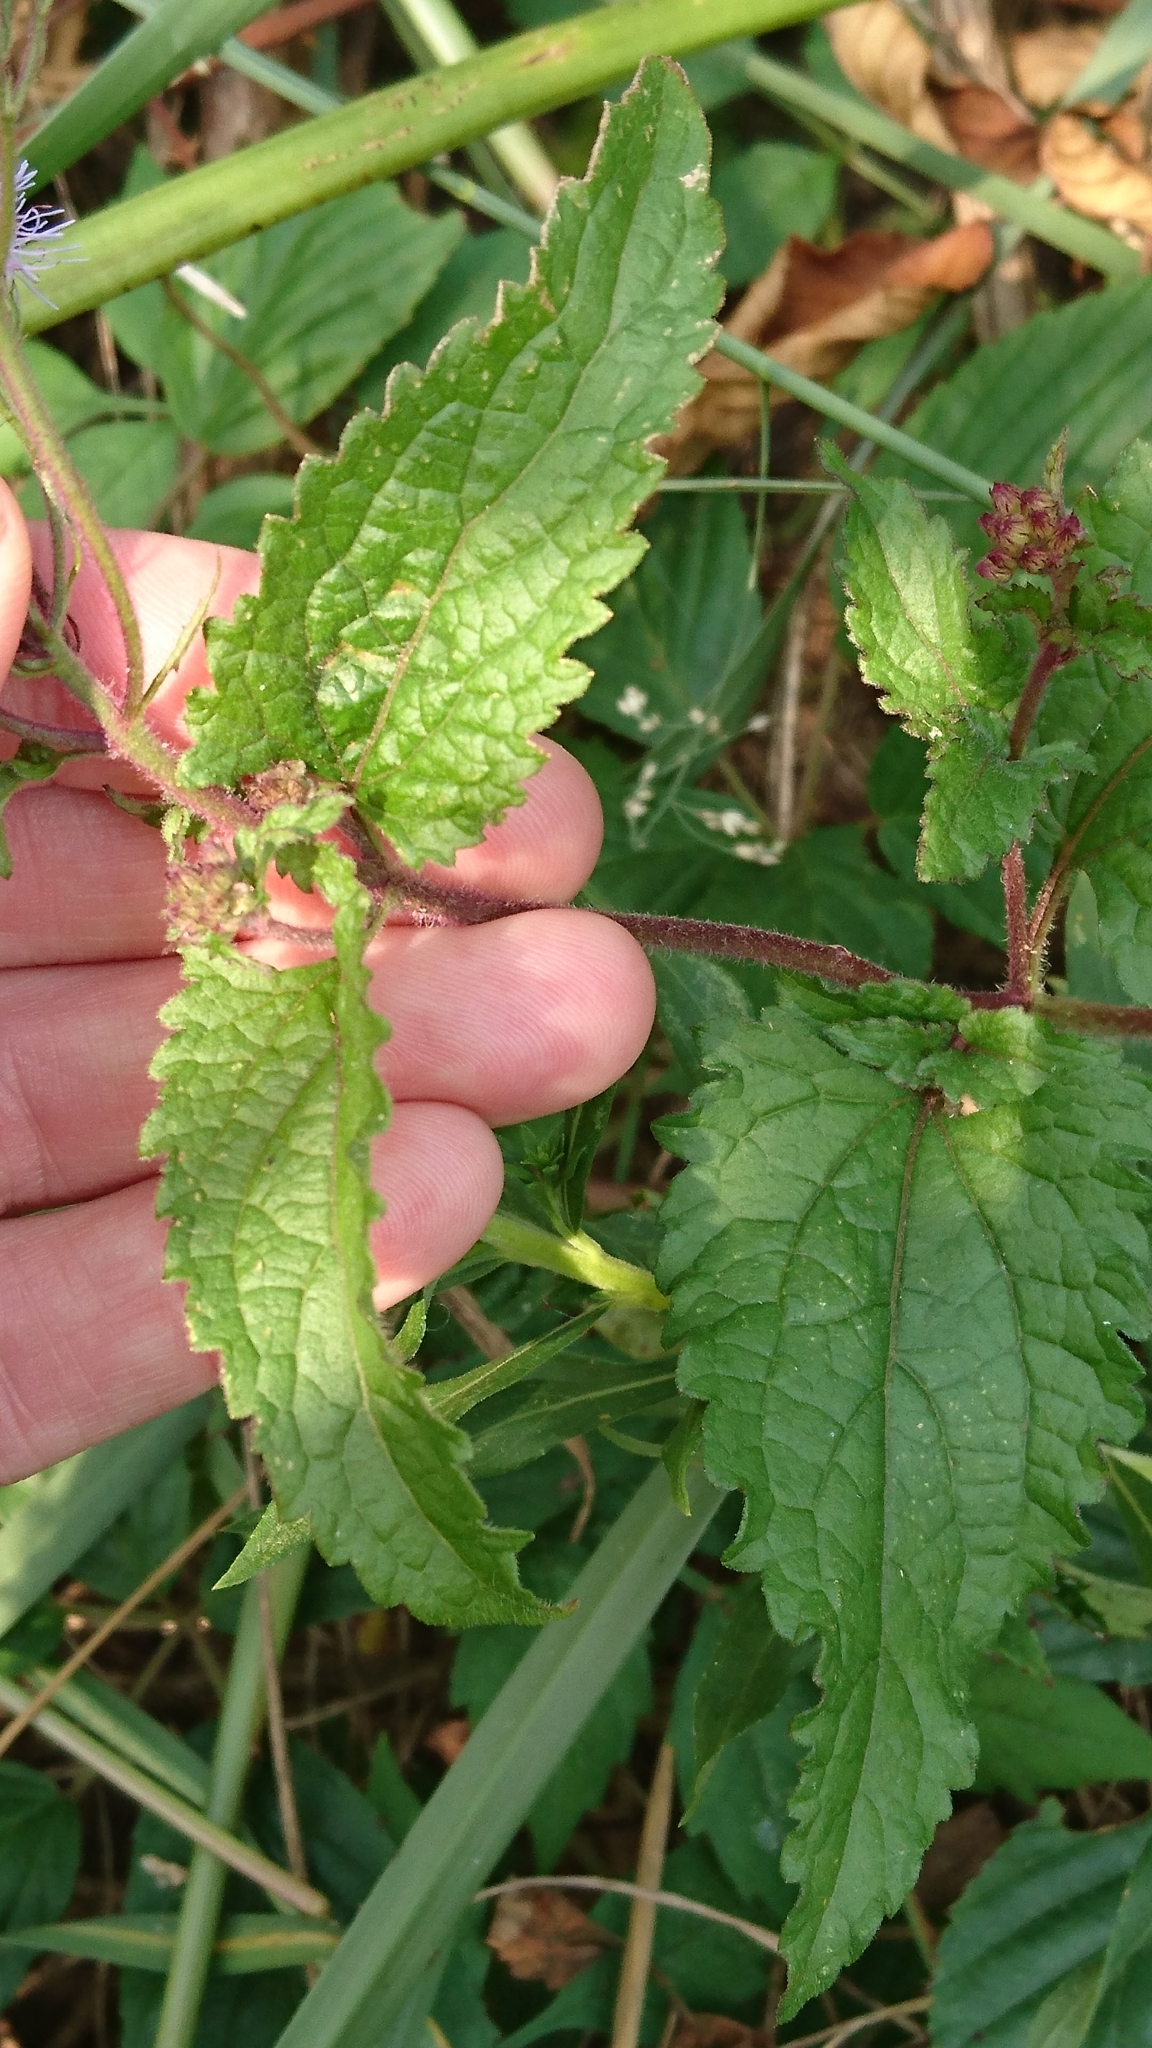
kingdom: Plantae
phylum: Tracheophyta
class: Magnoliopsida
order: Asterales
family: Asteraceae
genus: Conoclinium
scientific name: Conoclinium coelestinum
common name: Blue mistflower
